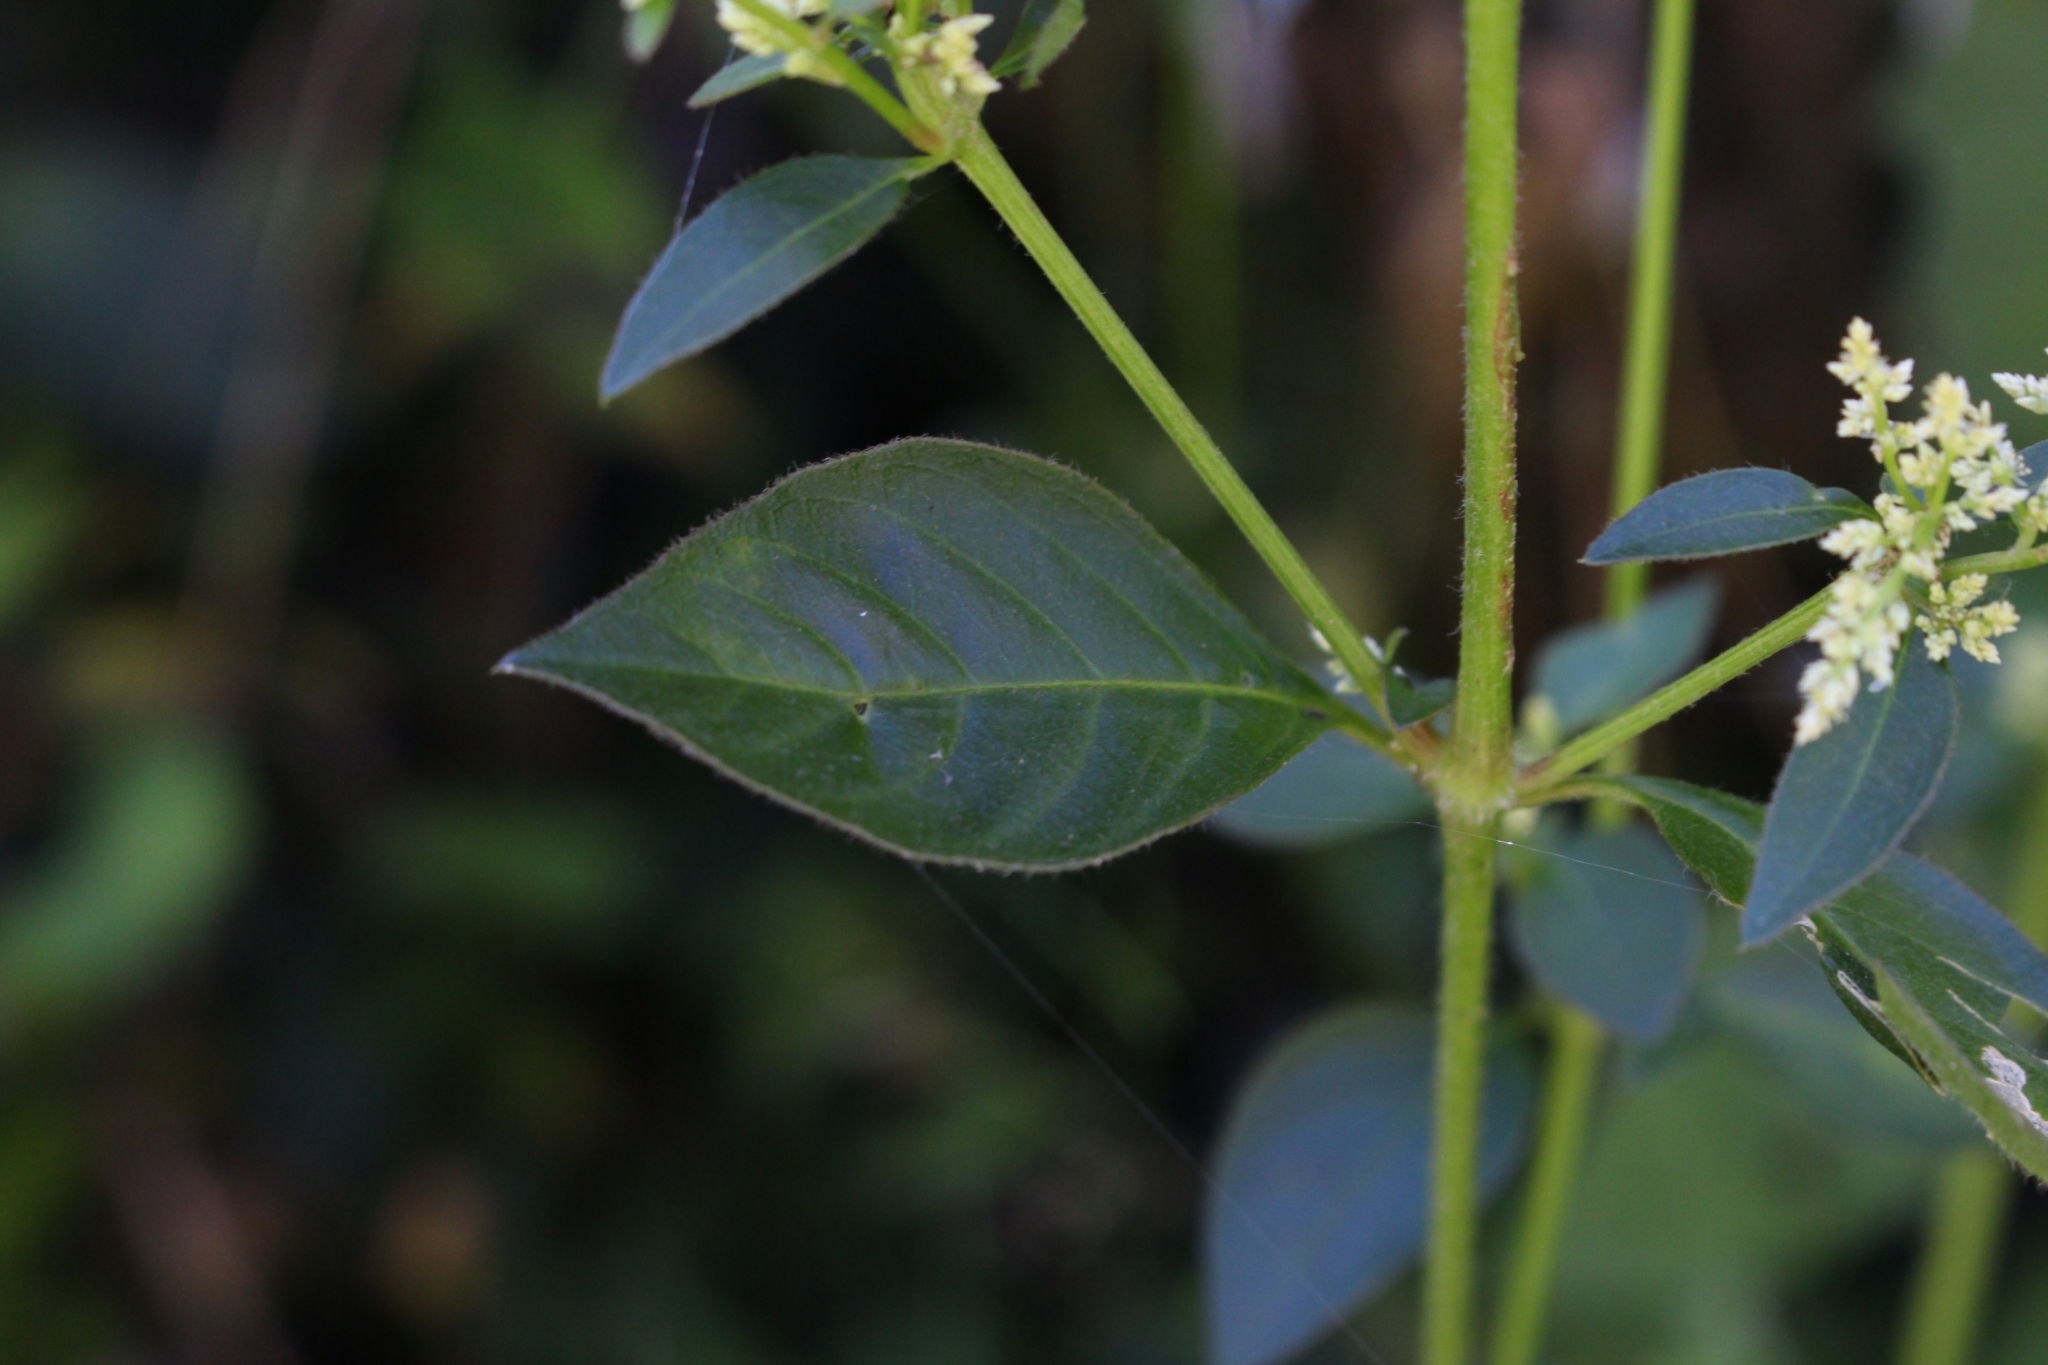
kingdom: Plantae
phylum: Tracheophyta
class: Magnoliopsida
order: Caryophyllales
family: Amaranthaceae
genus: Iresine
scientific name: Iresine diffusa
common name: Juba's-bush
